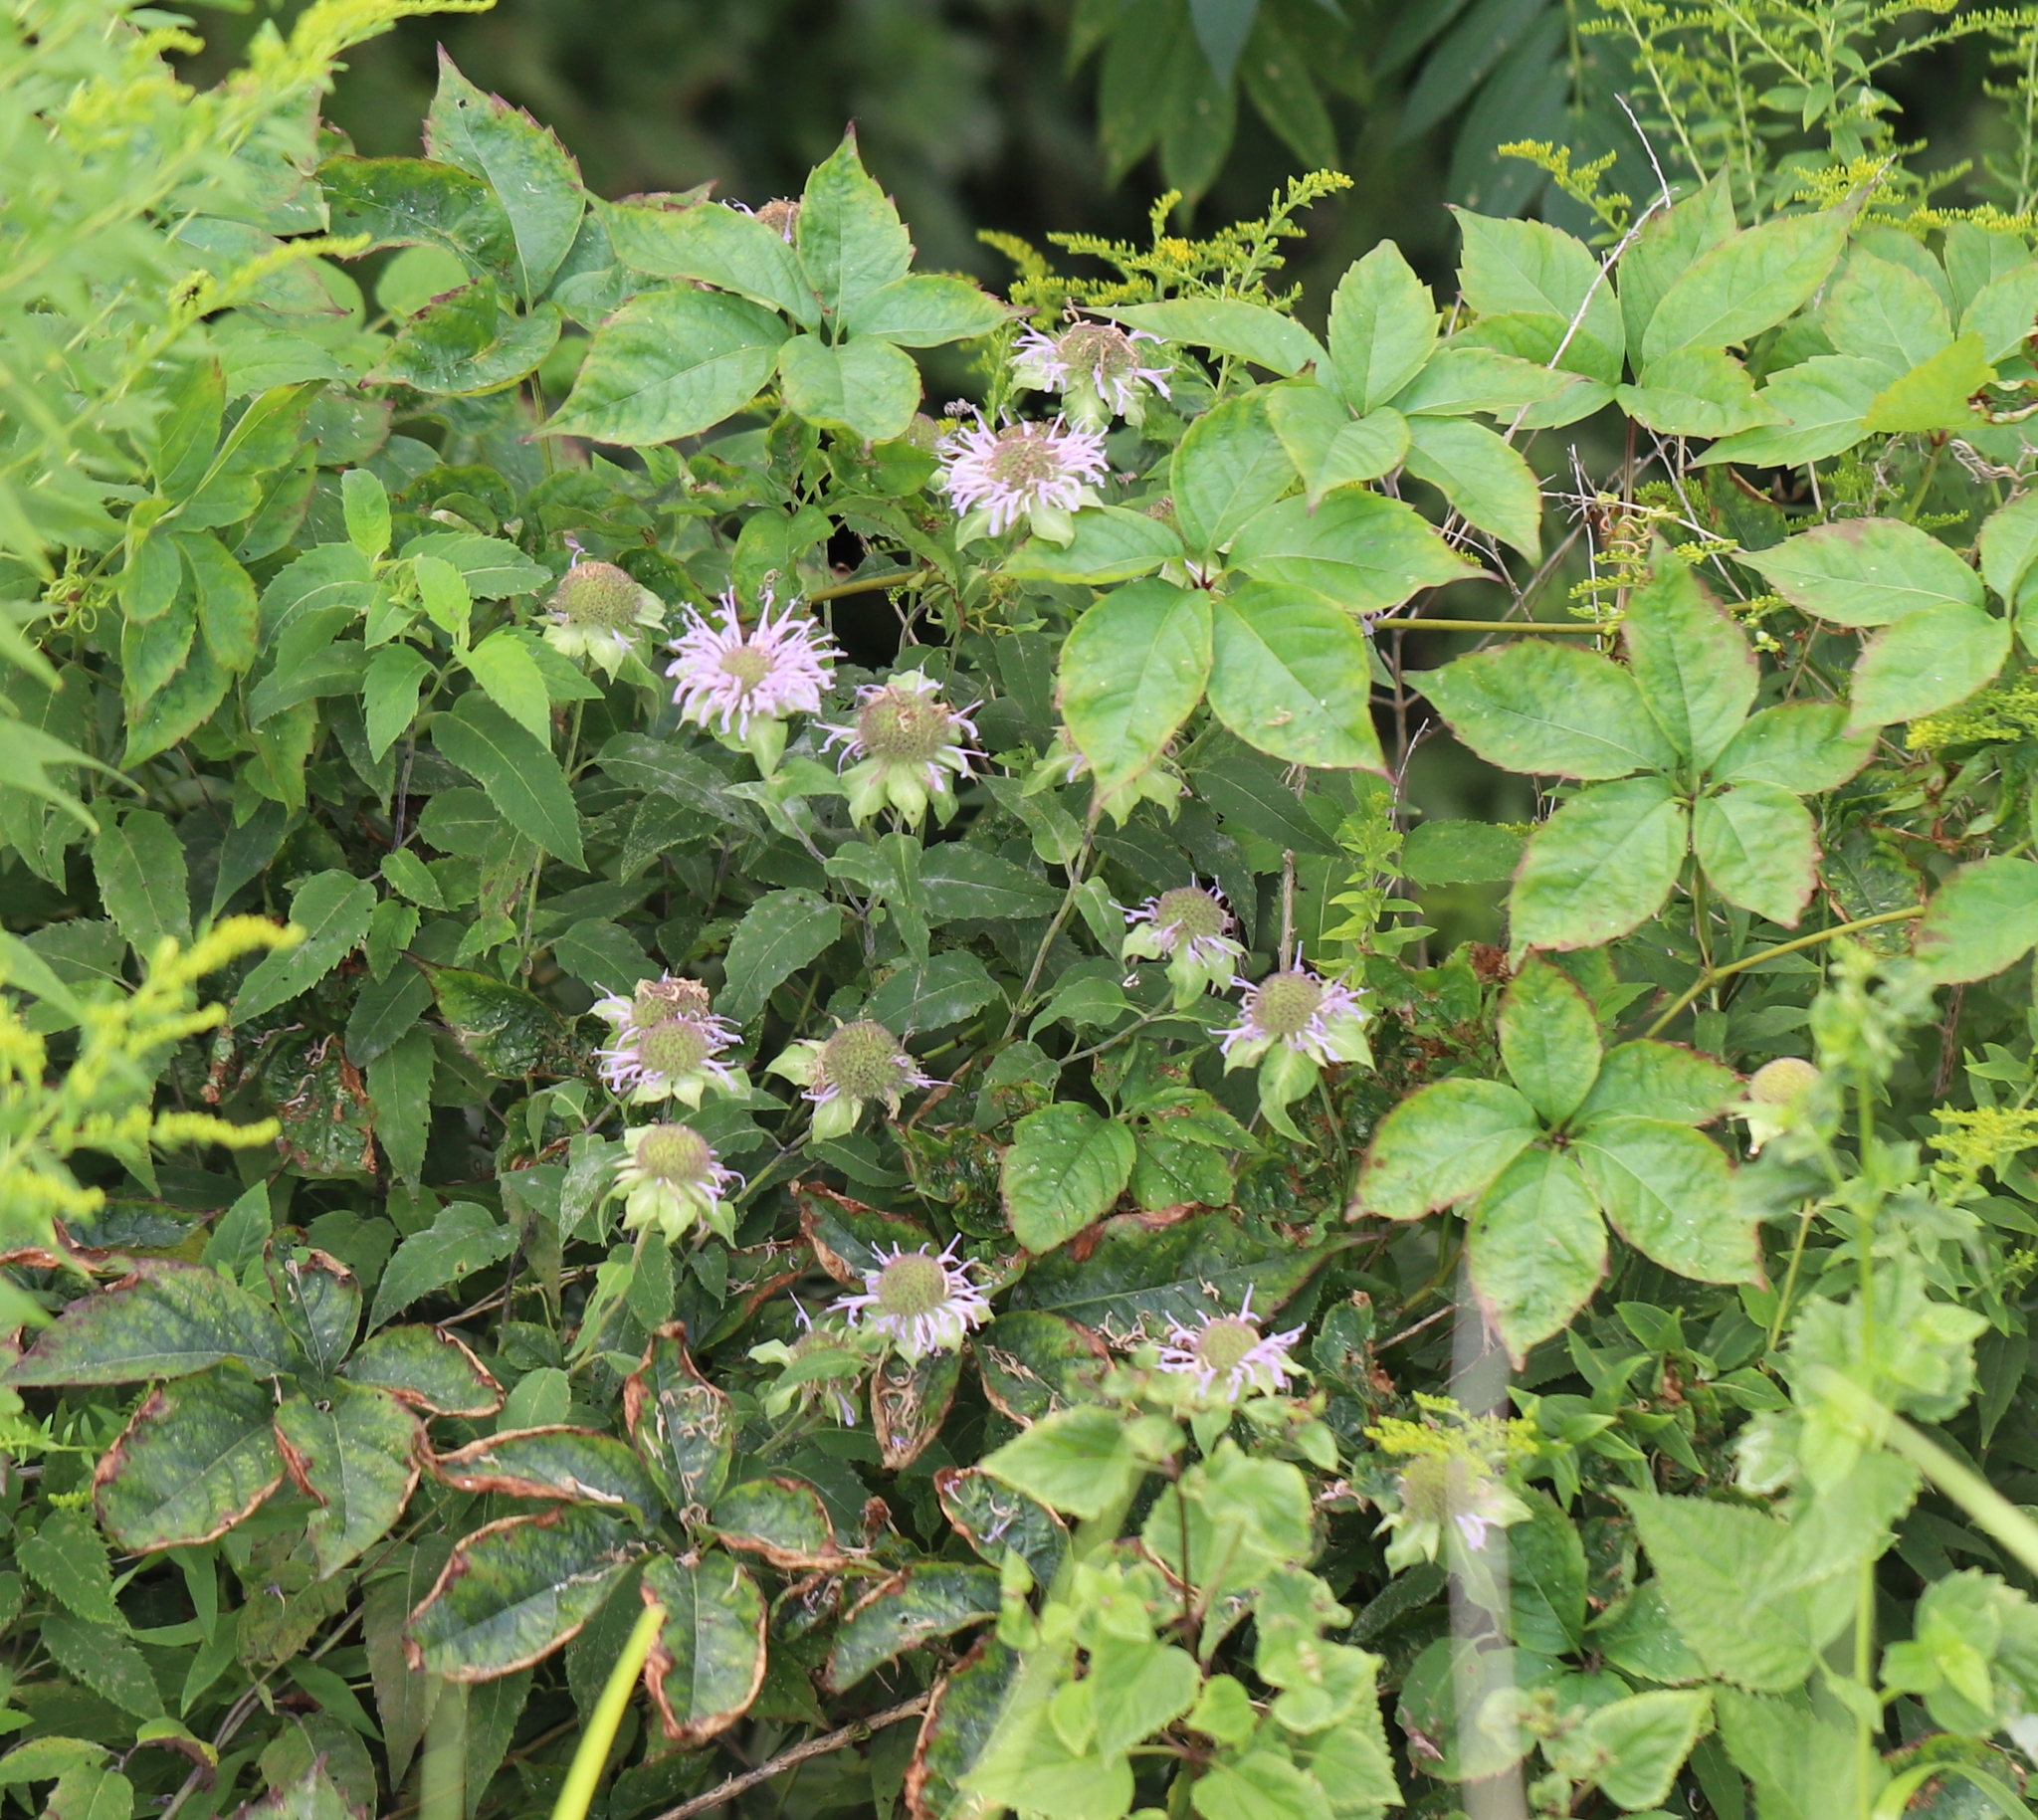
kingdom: Plantae
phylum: Tracheophyta
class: Magnoliopsida
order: Lamiales
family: Lamiaceae
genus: Monarda
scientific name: Monarda fistulosa
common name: Purple beebalm
